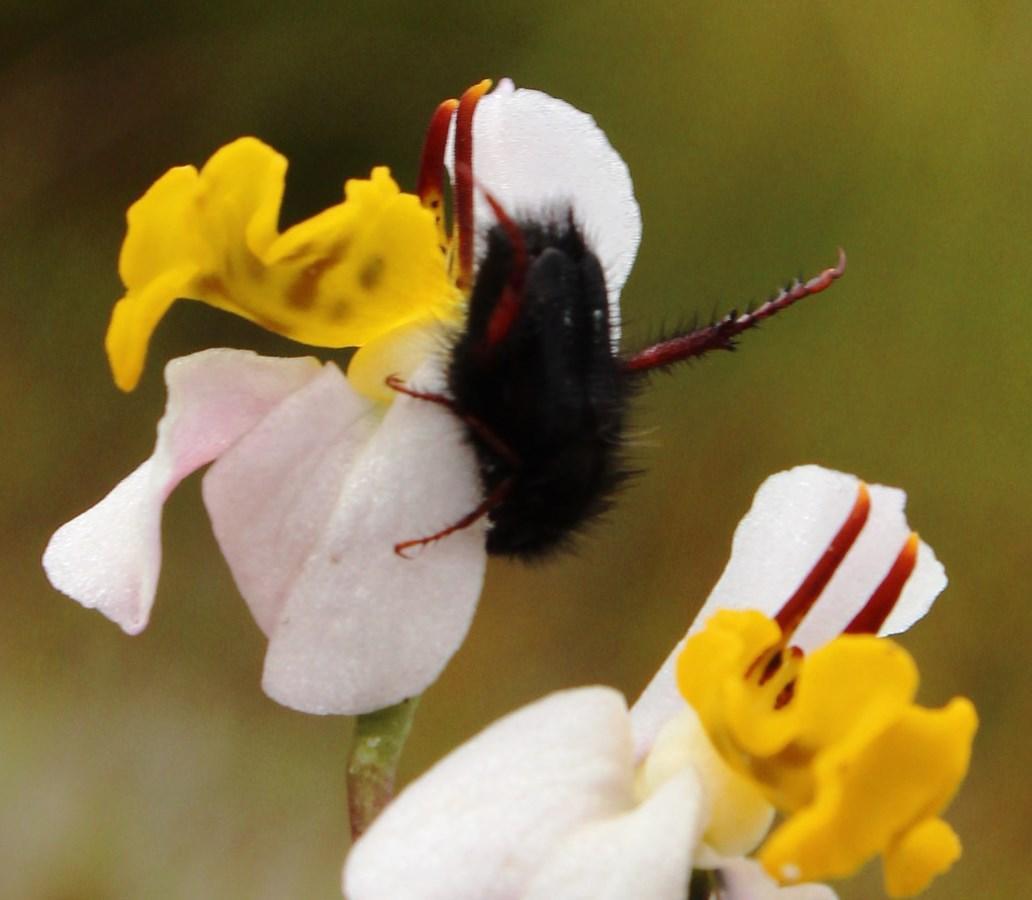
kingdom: Plantae
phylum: Tracheophyta
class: Liliopsida
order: Asparagales
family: Orchidaceae
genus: Disa
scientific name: Disa flexuosa
